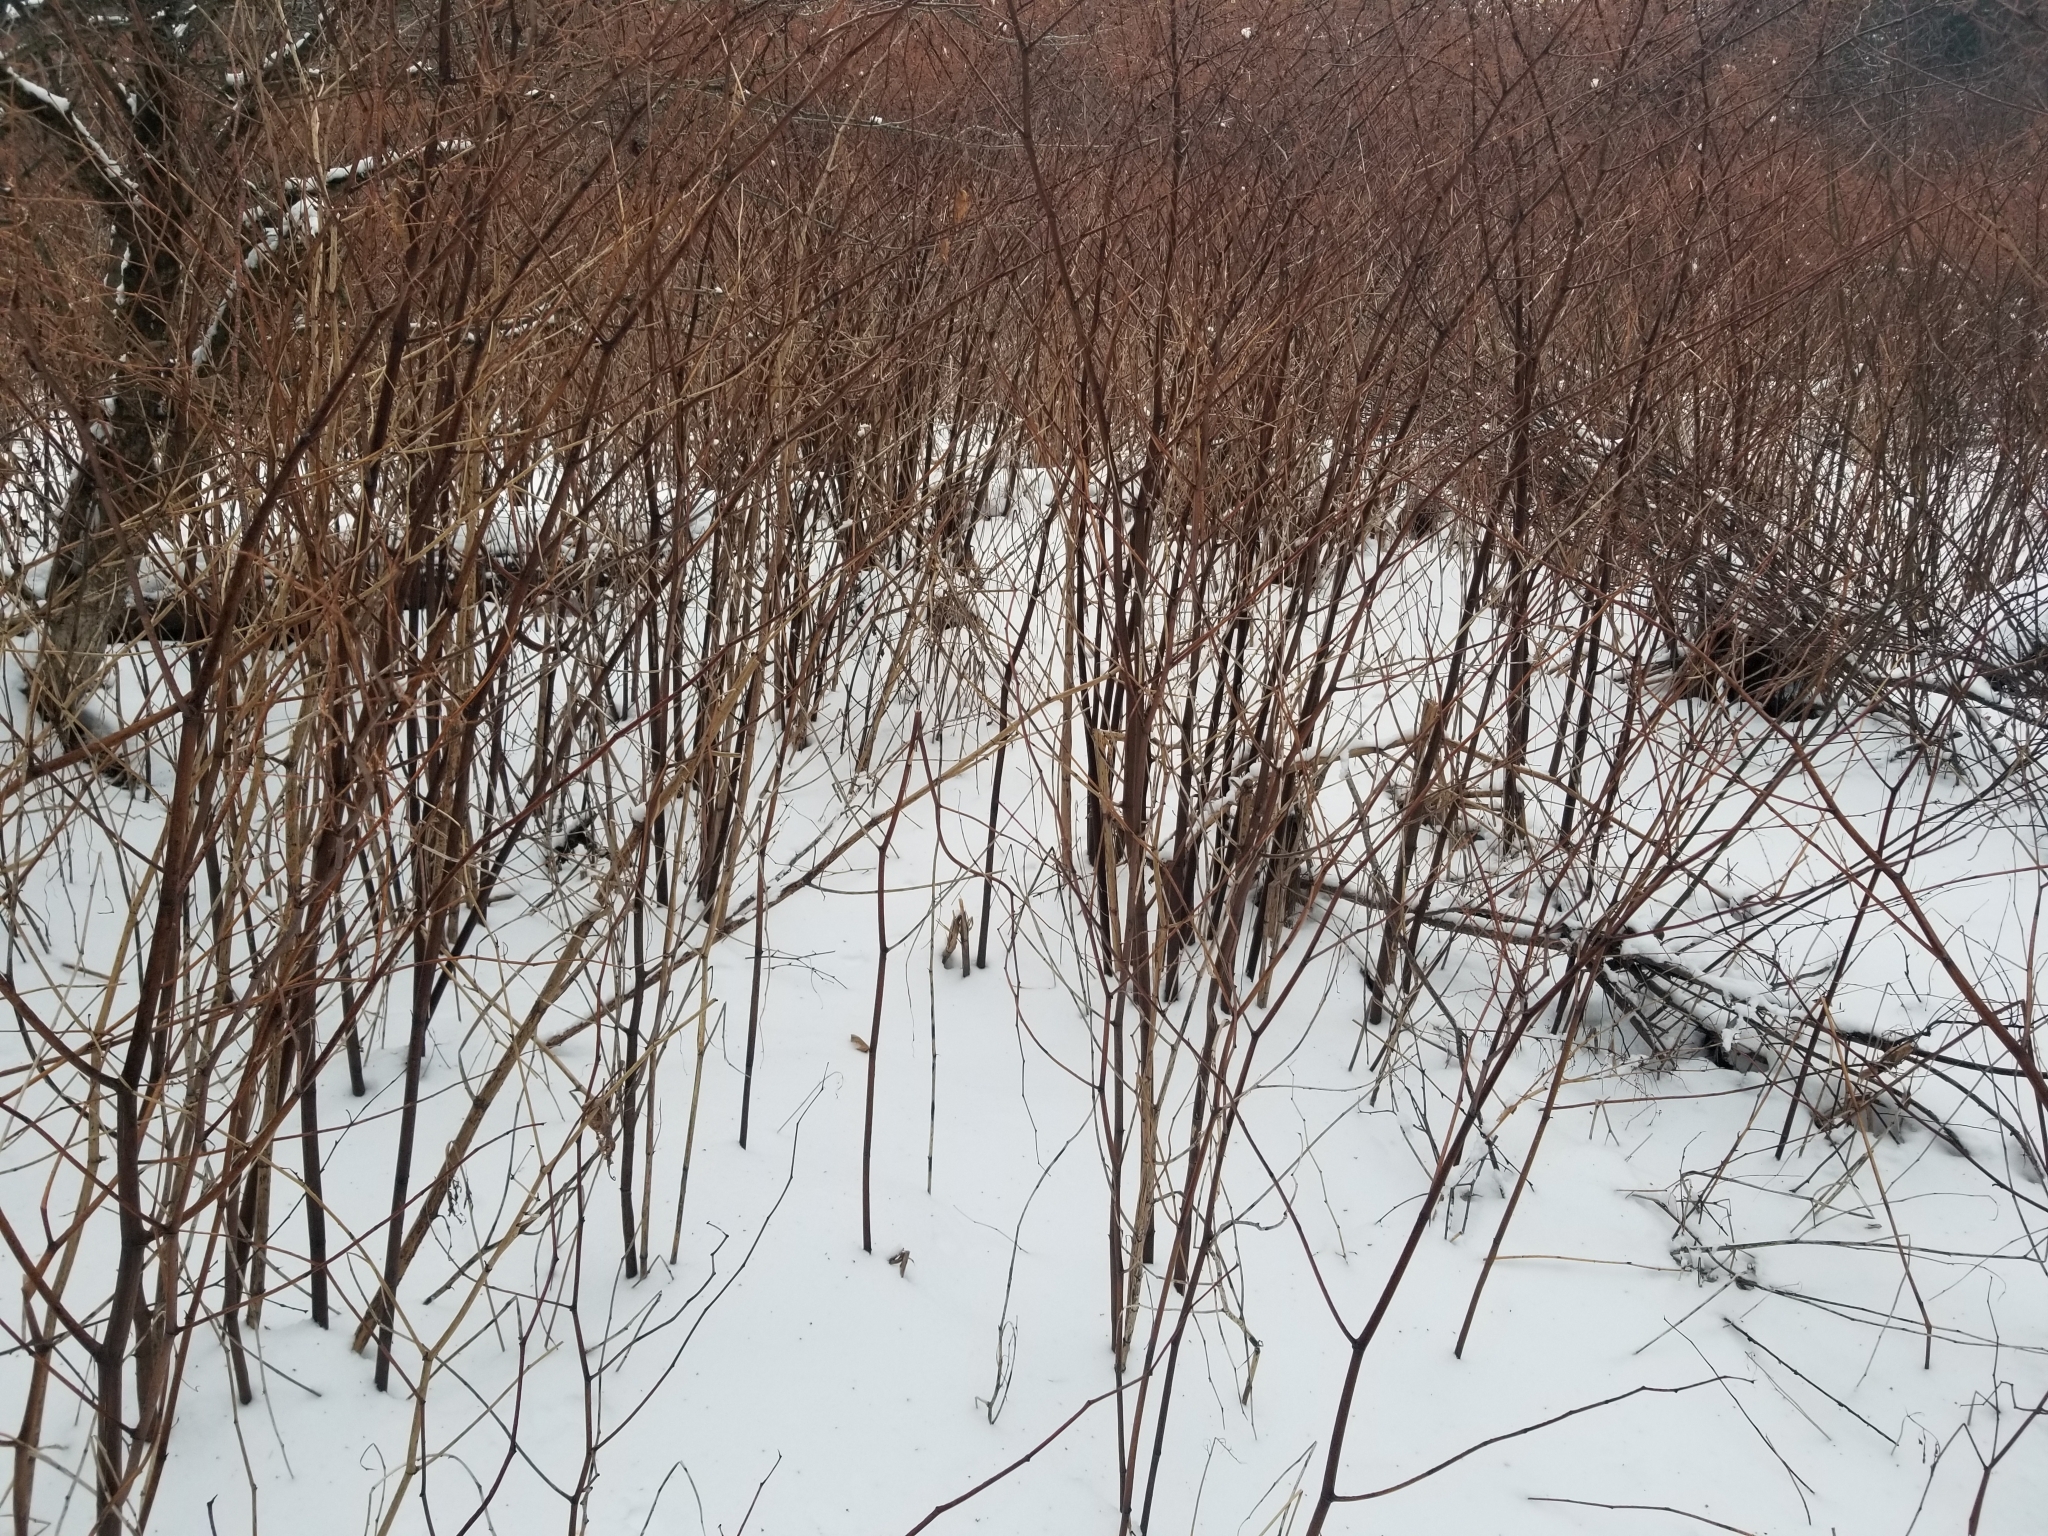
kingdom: Plantae
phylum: Tracheophyta
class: Magnoliopsida
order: Caryophyllales
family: Polygonaceae
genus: Reynoutria
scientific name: Reynoutria japonica
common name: Japanese knotweed
